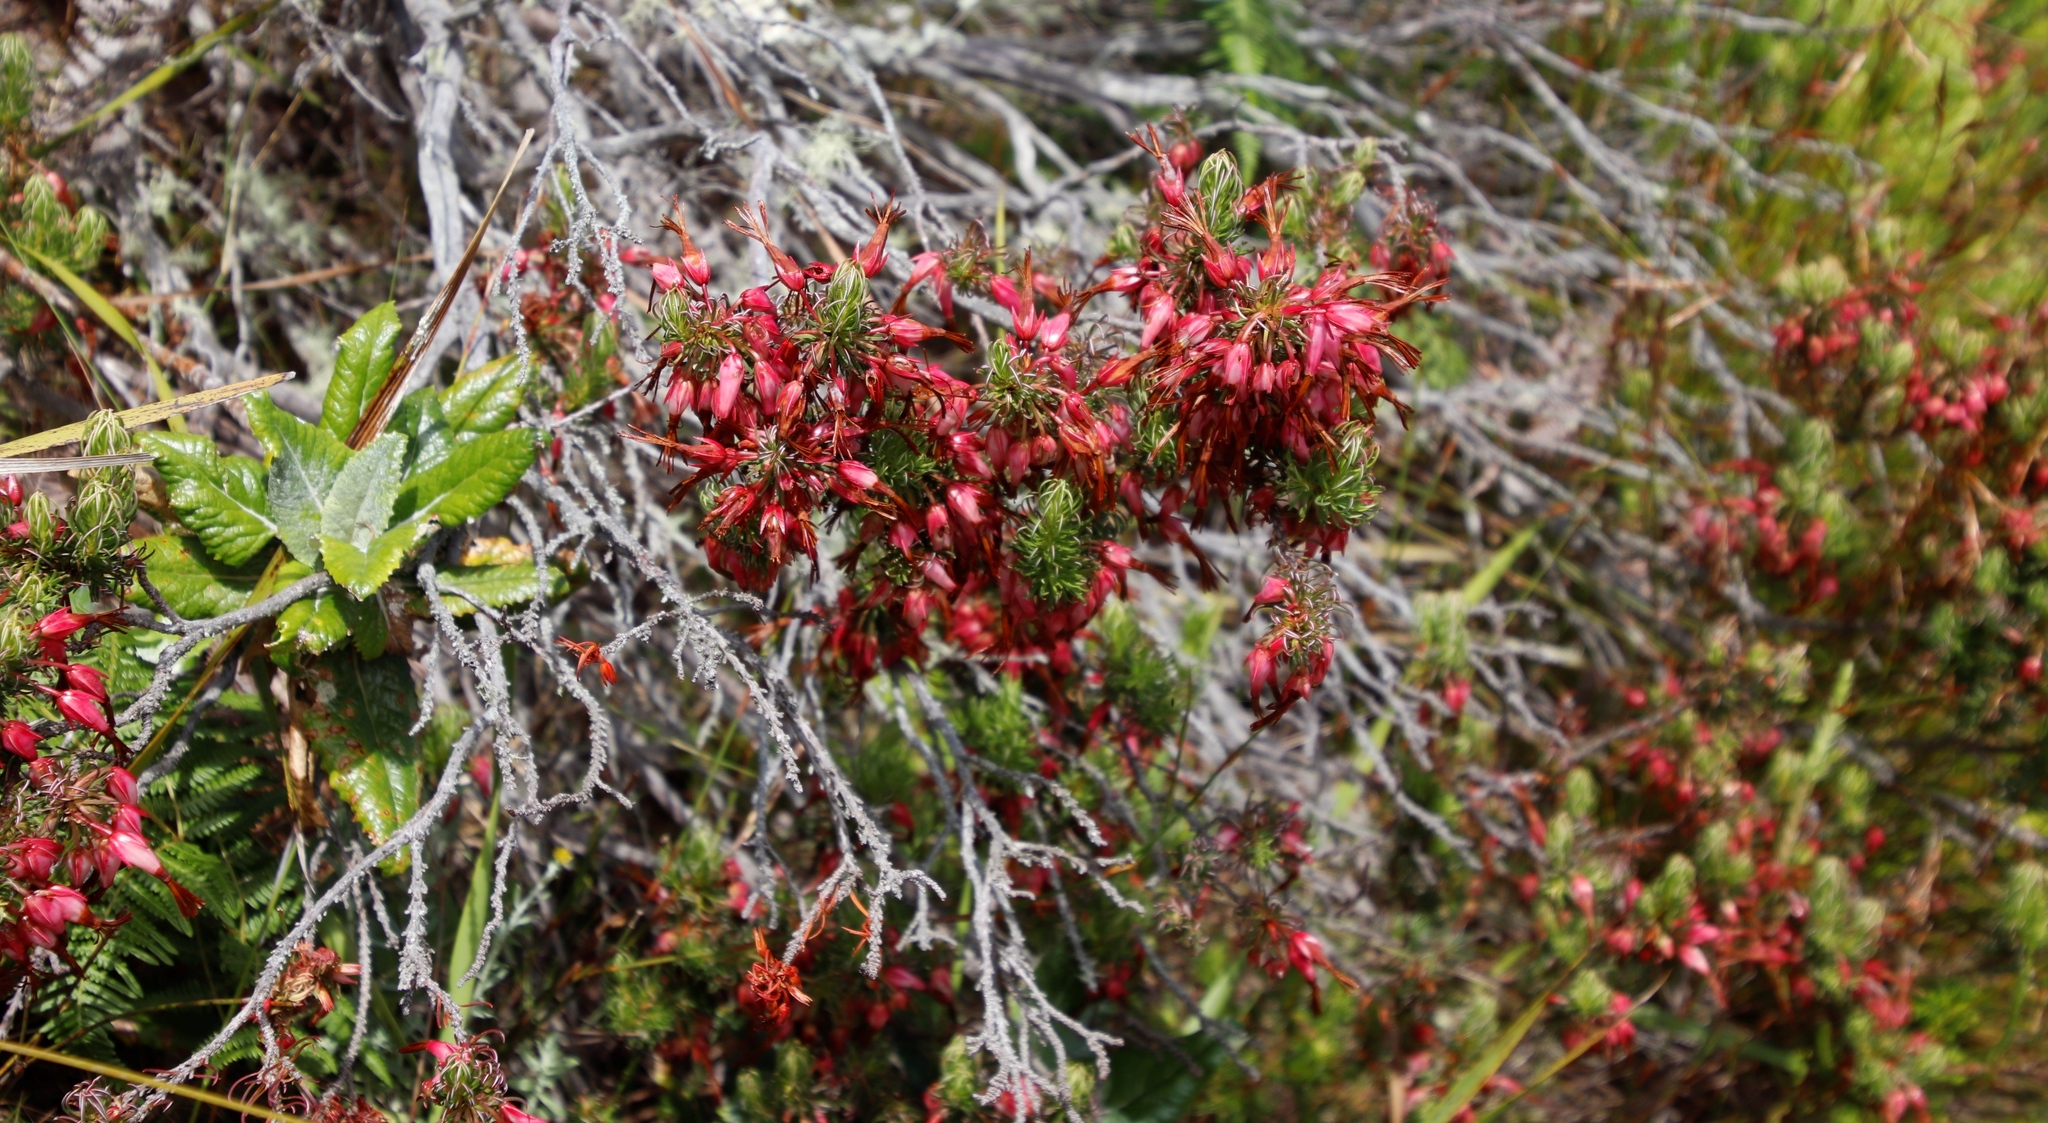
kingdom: Plantae
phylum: Tracheophyta
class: Magnoliopsida
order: Ericales
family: Ericaceae
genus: Erica
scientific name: Erica plukenetii
